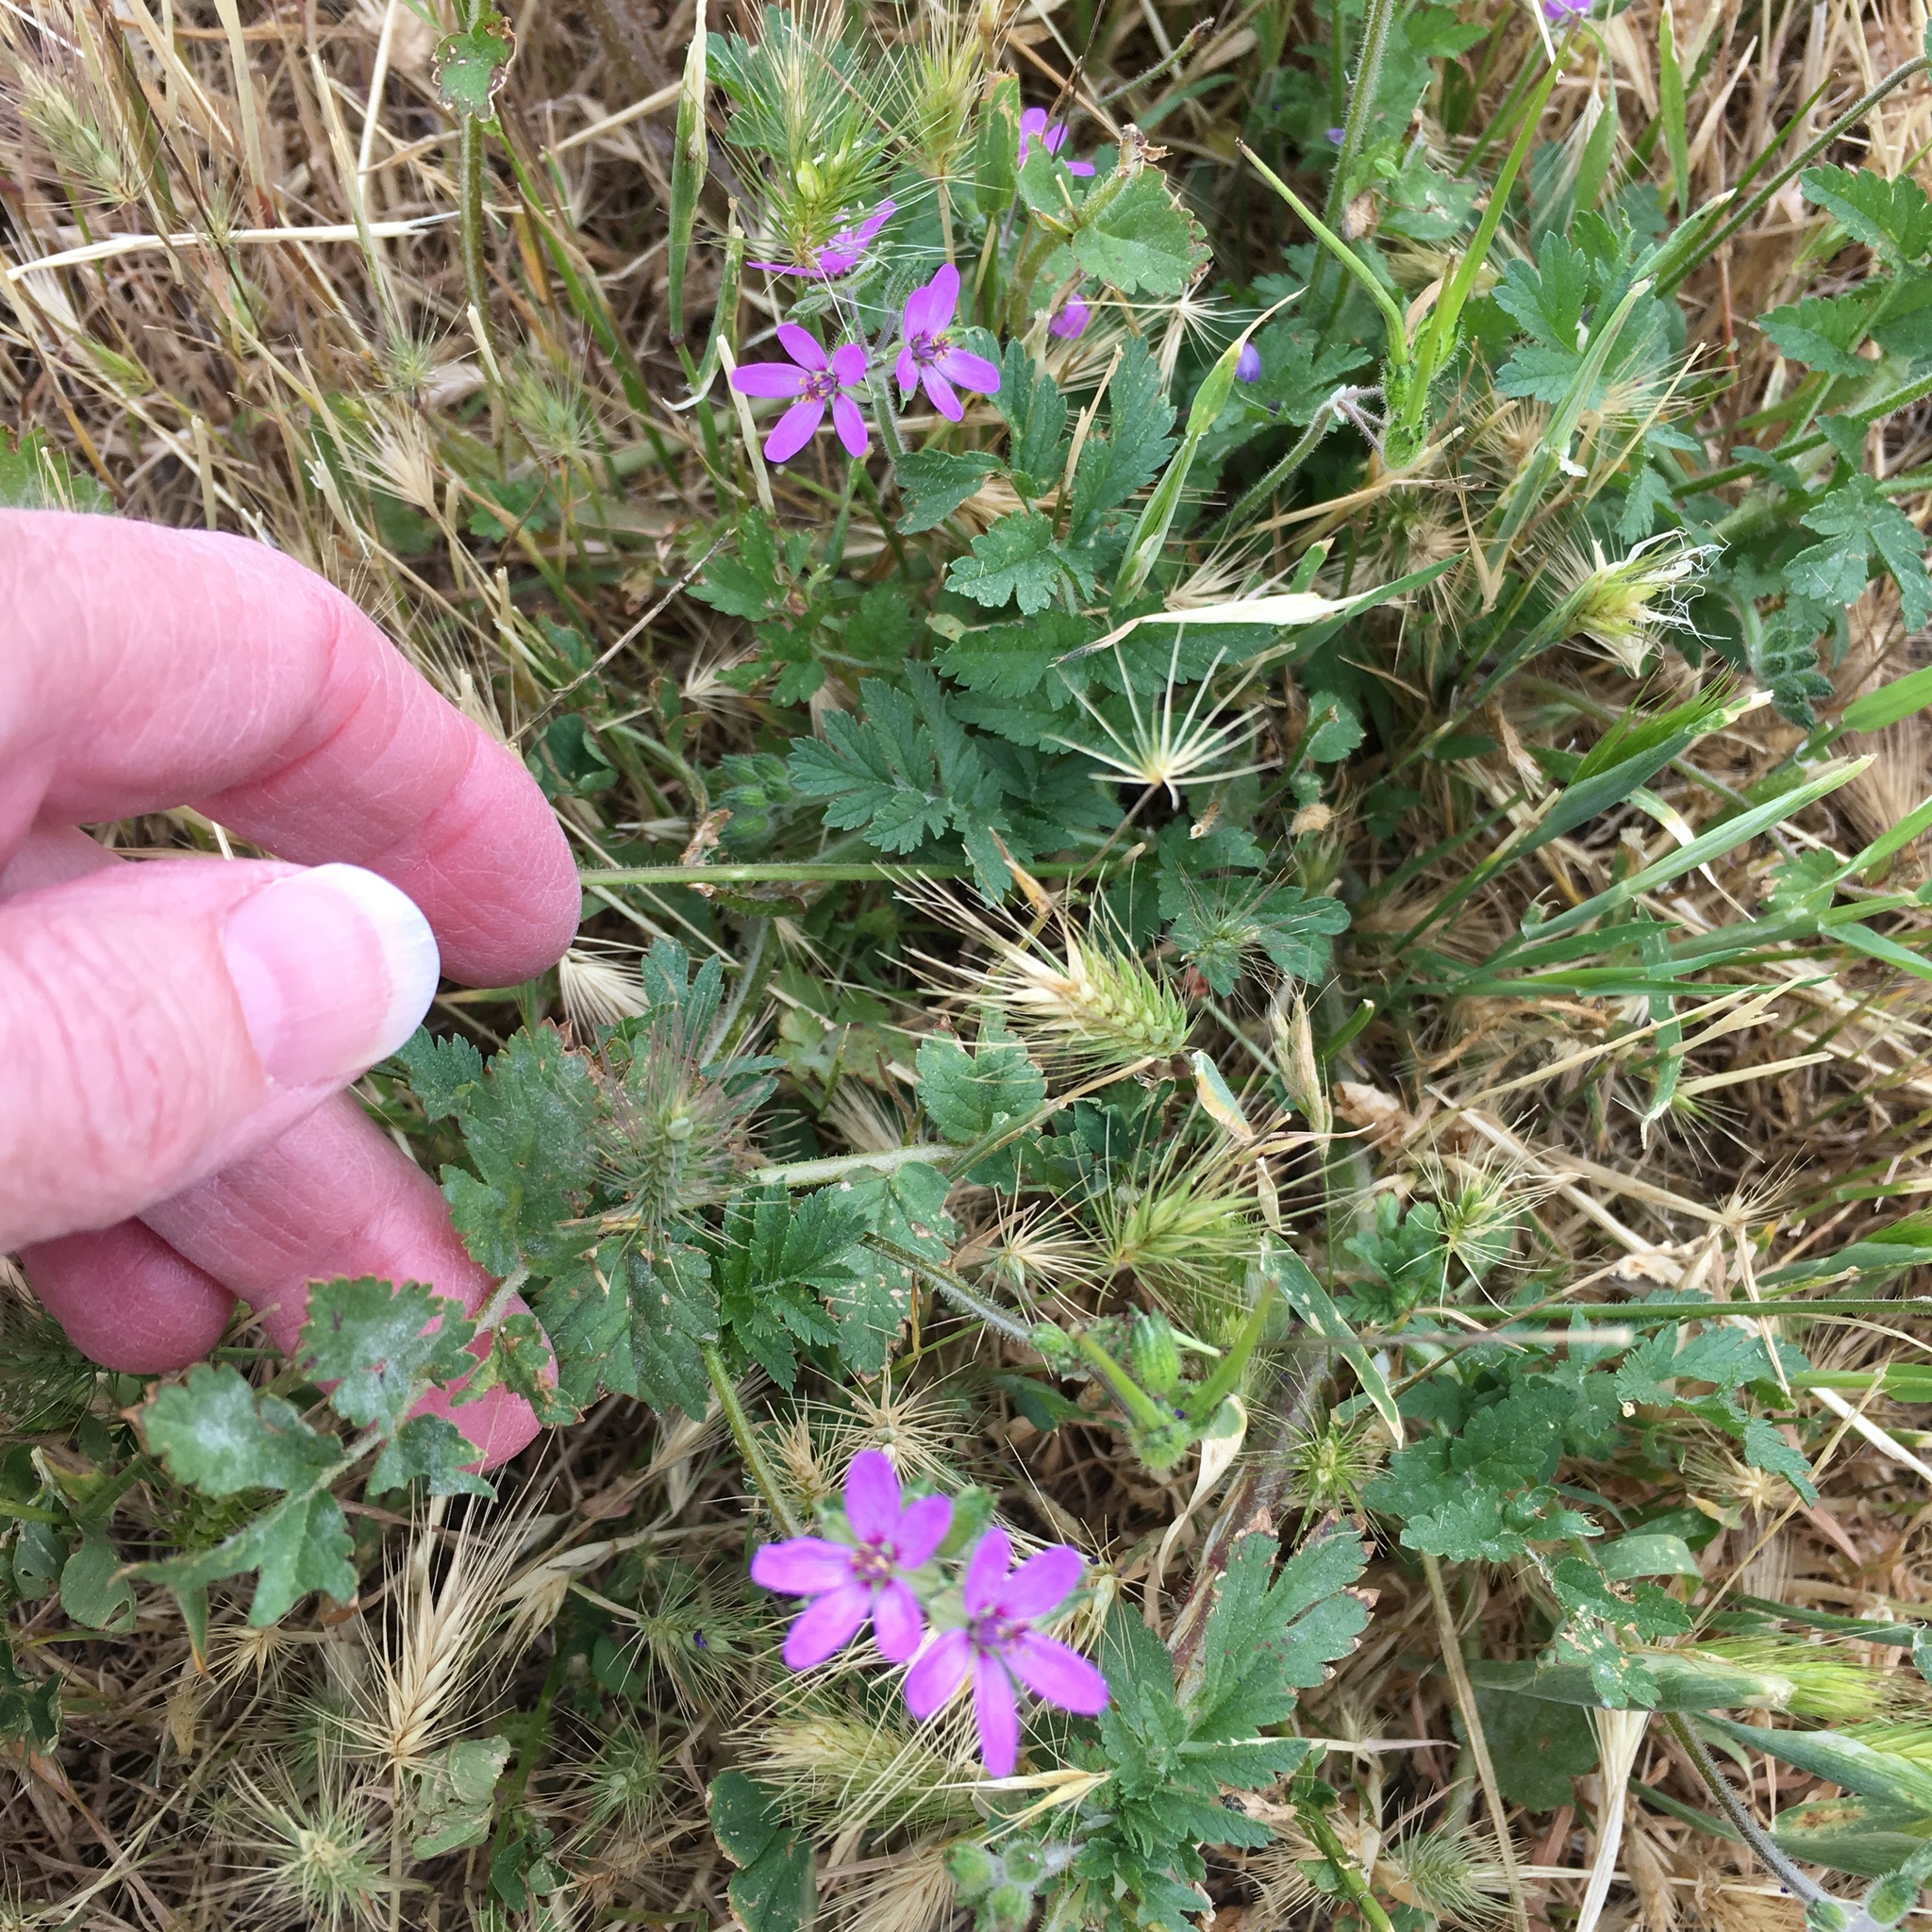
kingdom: Plantae
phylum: Tracheophyta
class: Magnoliopsida
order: Geraniales
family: Geraniaceae
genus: Erodium
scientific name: Erodium cicutarium
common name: Common stork's-bill
